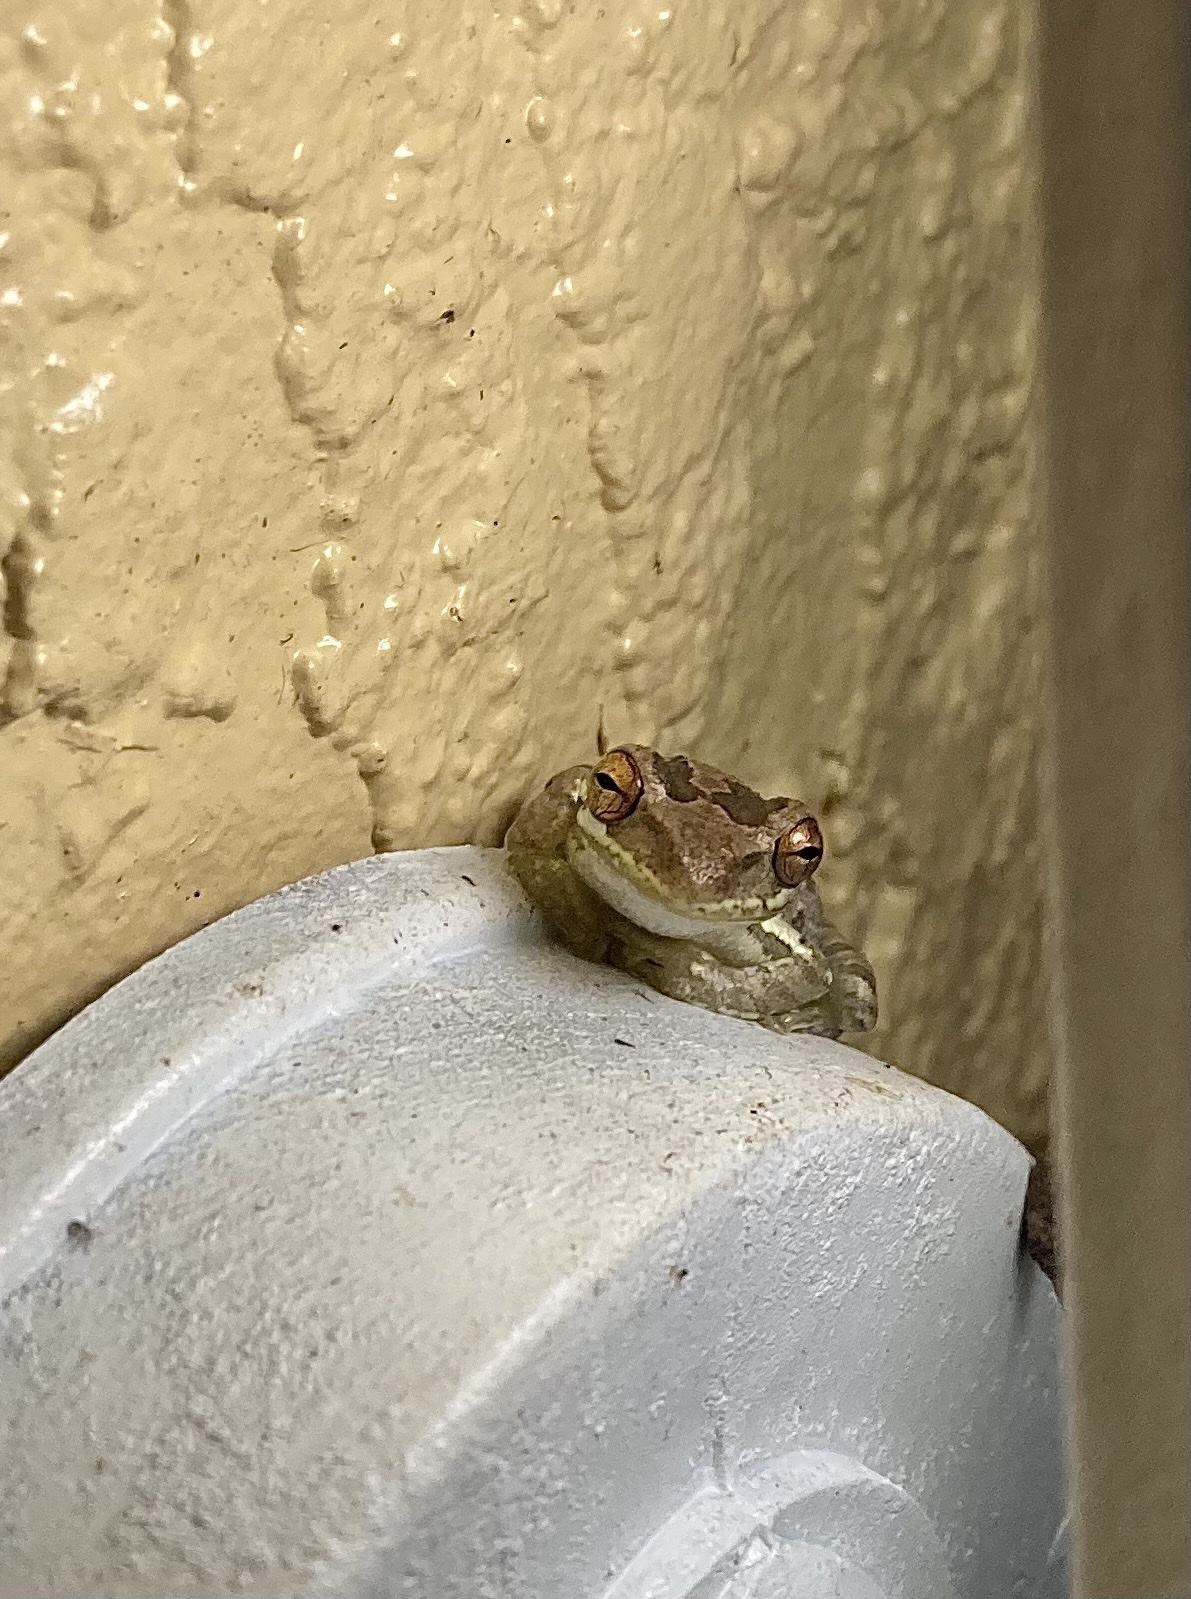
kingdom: Animalia
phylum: Chordata
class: Amphibia
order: Anura
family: Hylidae
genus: Osteopilus
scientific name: Osteopilus septentrionalis
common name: Cuban treefrog
